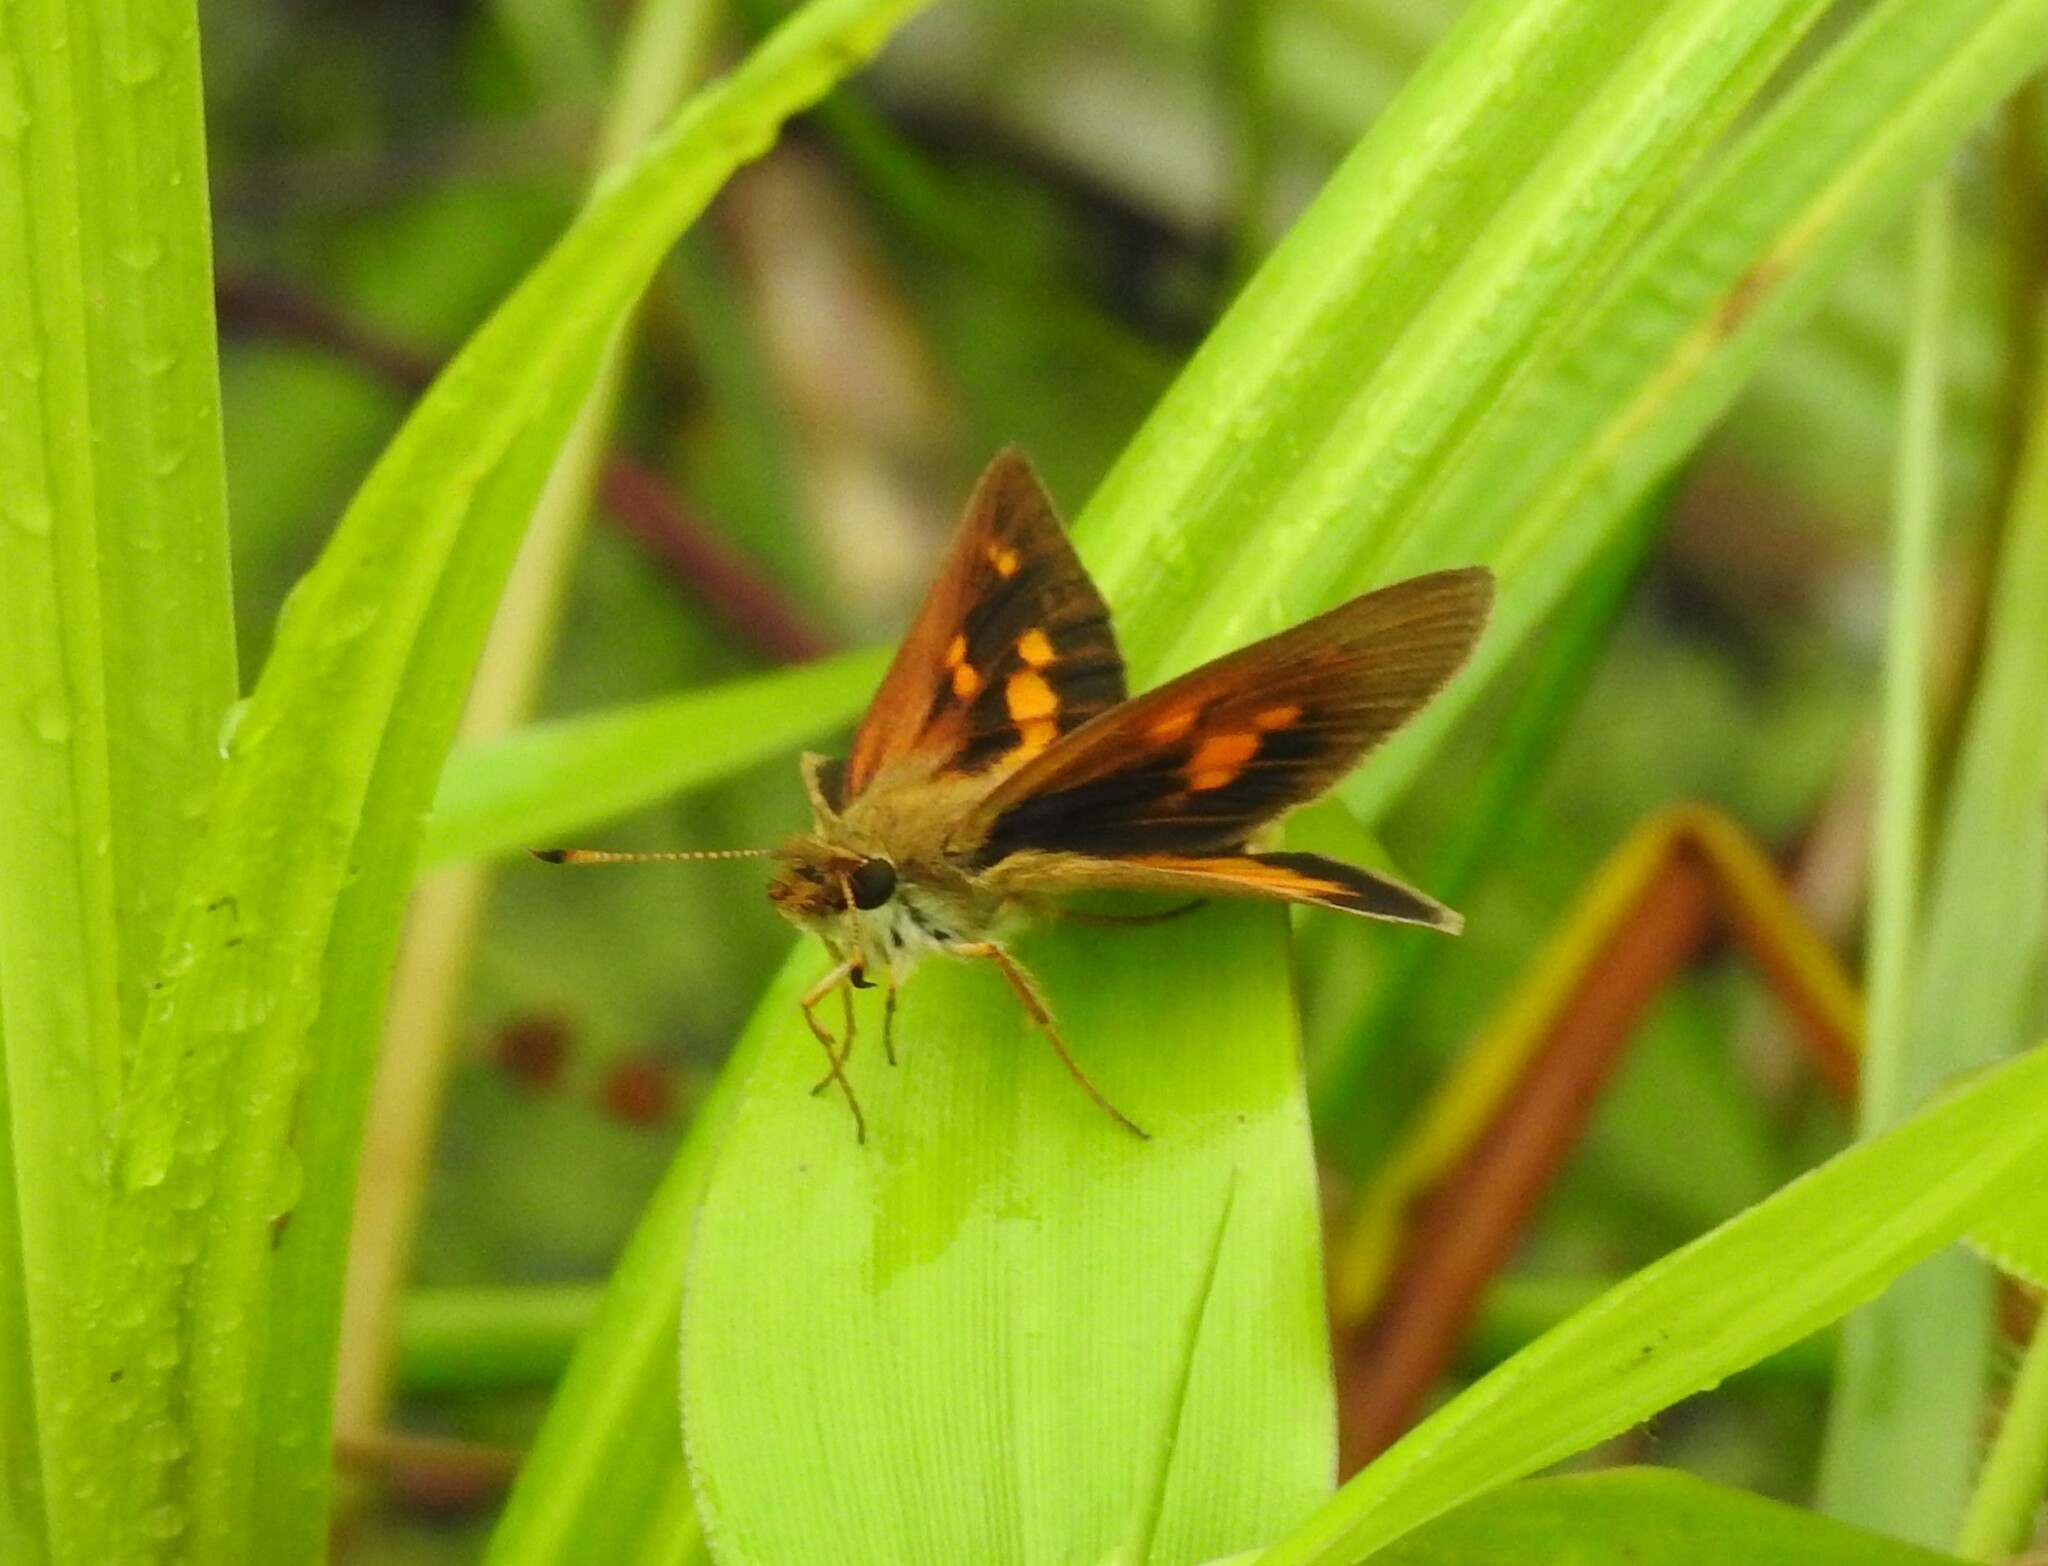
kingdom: Animalia
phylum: Arthropoda
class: Insecta
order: Lepidoptera
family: Hesperiidae
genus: Poanes
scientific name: Poanes viator
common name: Broad-winged skipper
